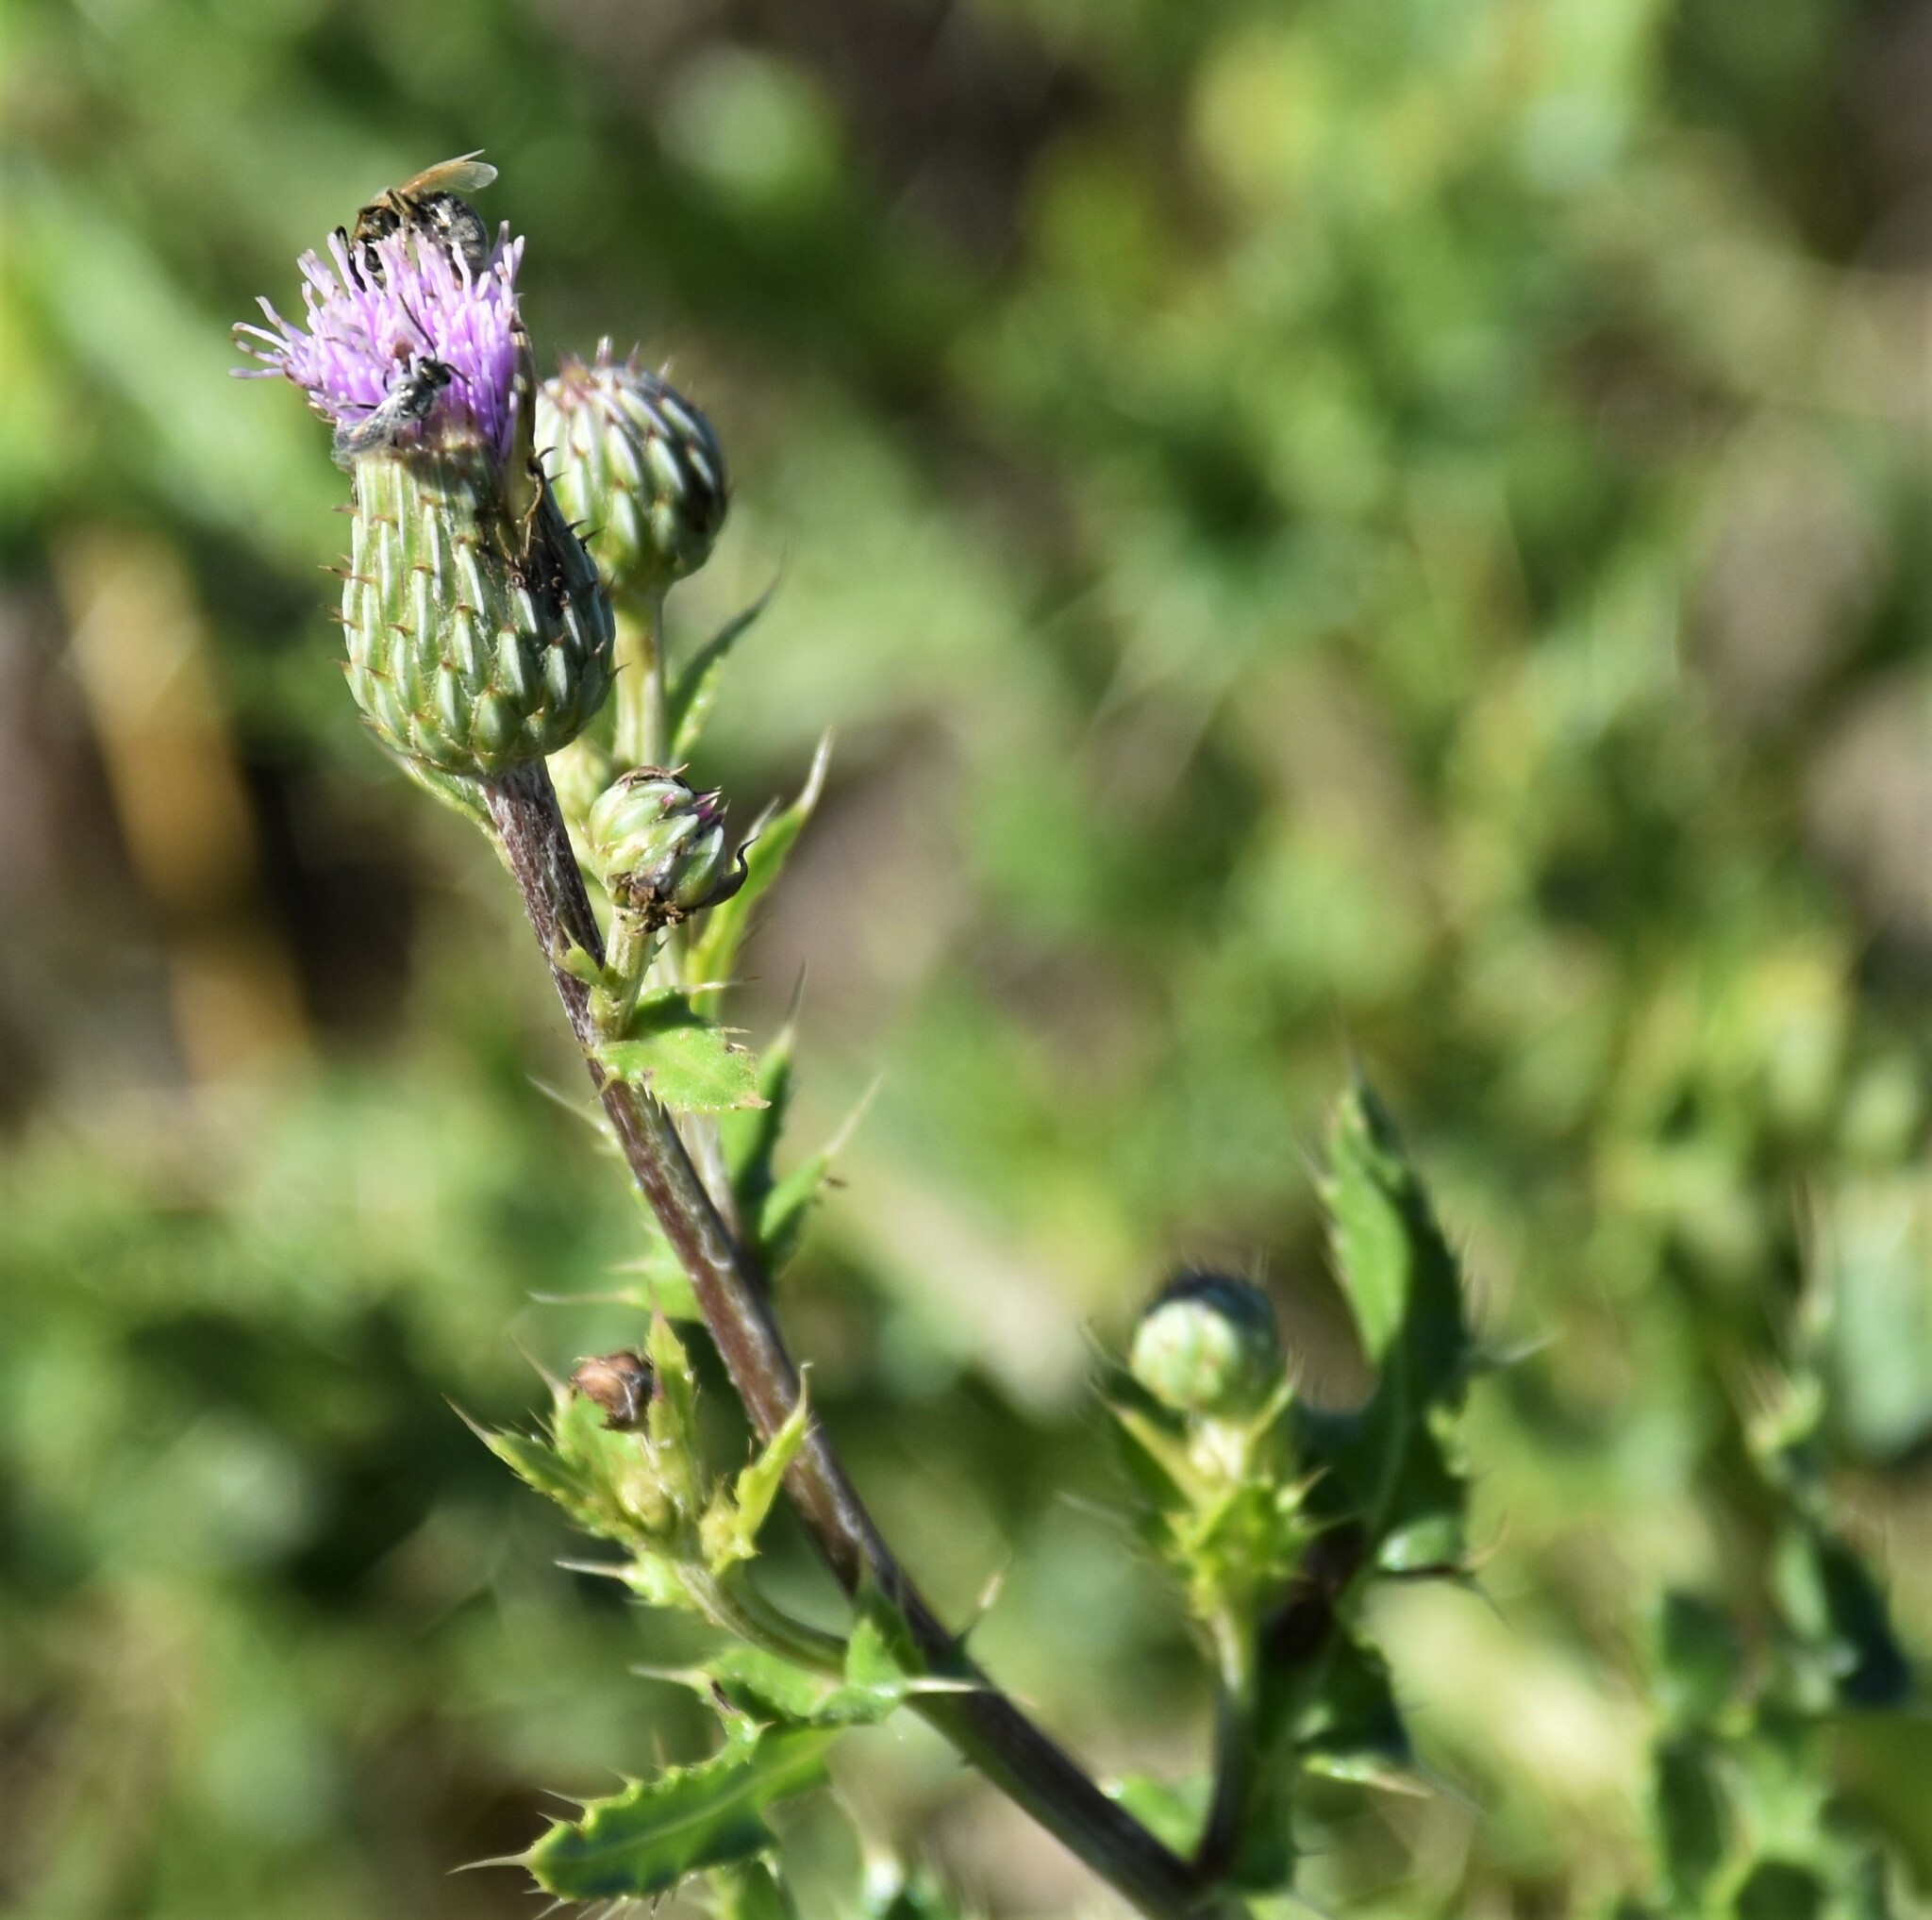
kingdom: Plantae
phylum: Tracheophyta
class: Magnoliopsida
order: Asterales
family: Asteraceae
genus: Cirsium
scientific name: Cirsium arvense
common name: Creeping thistle
